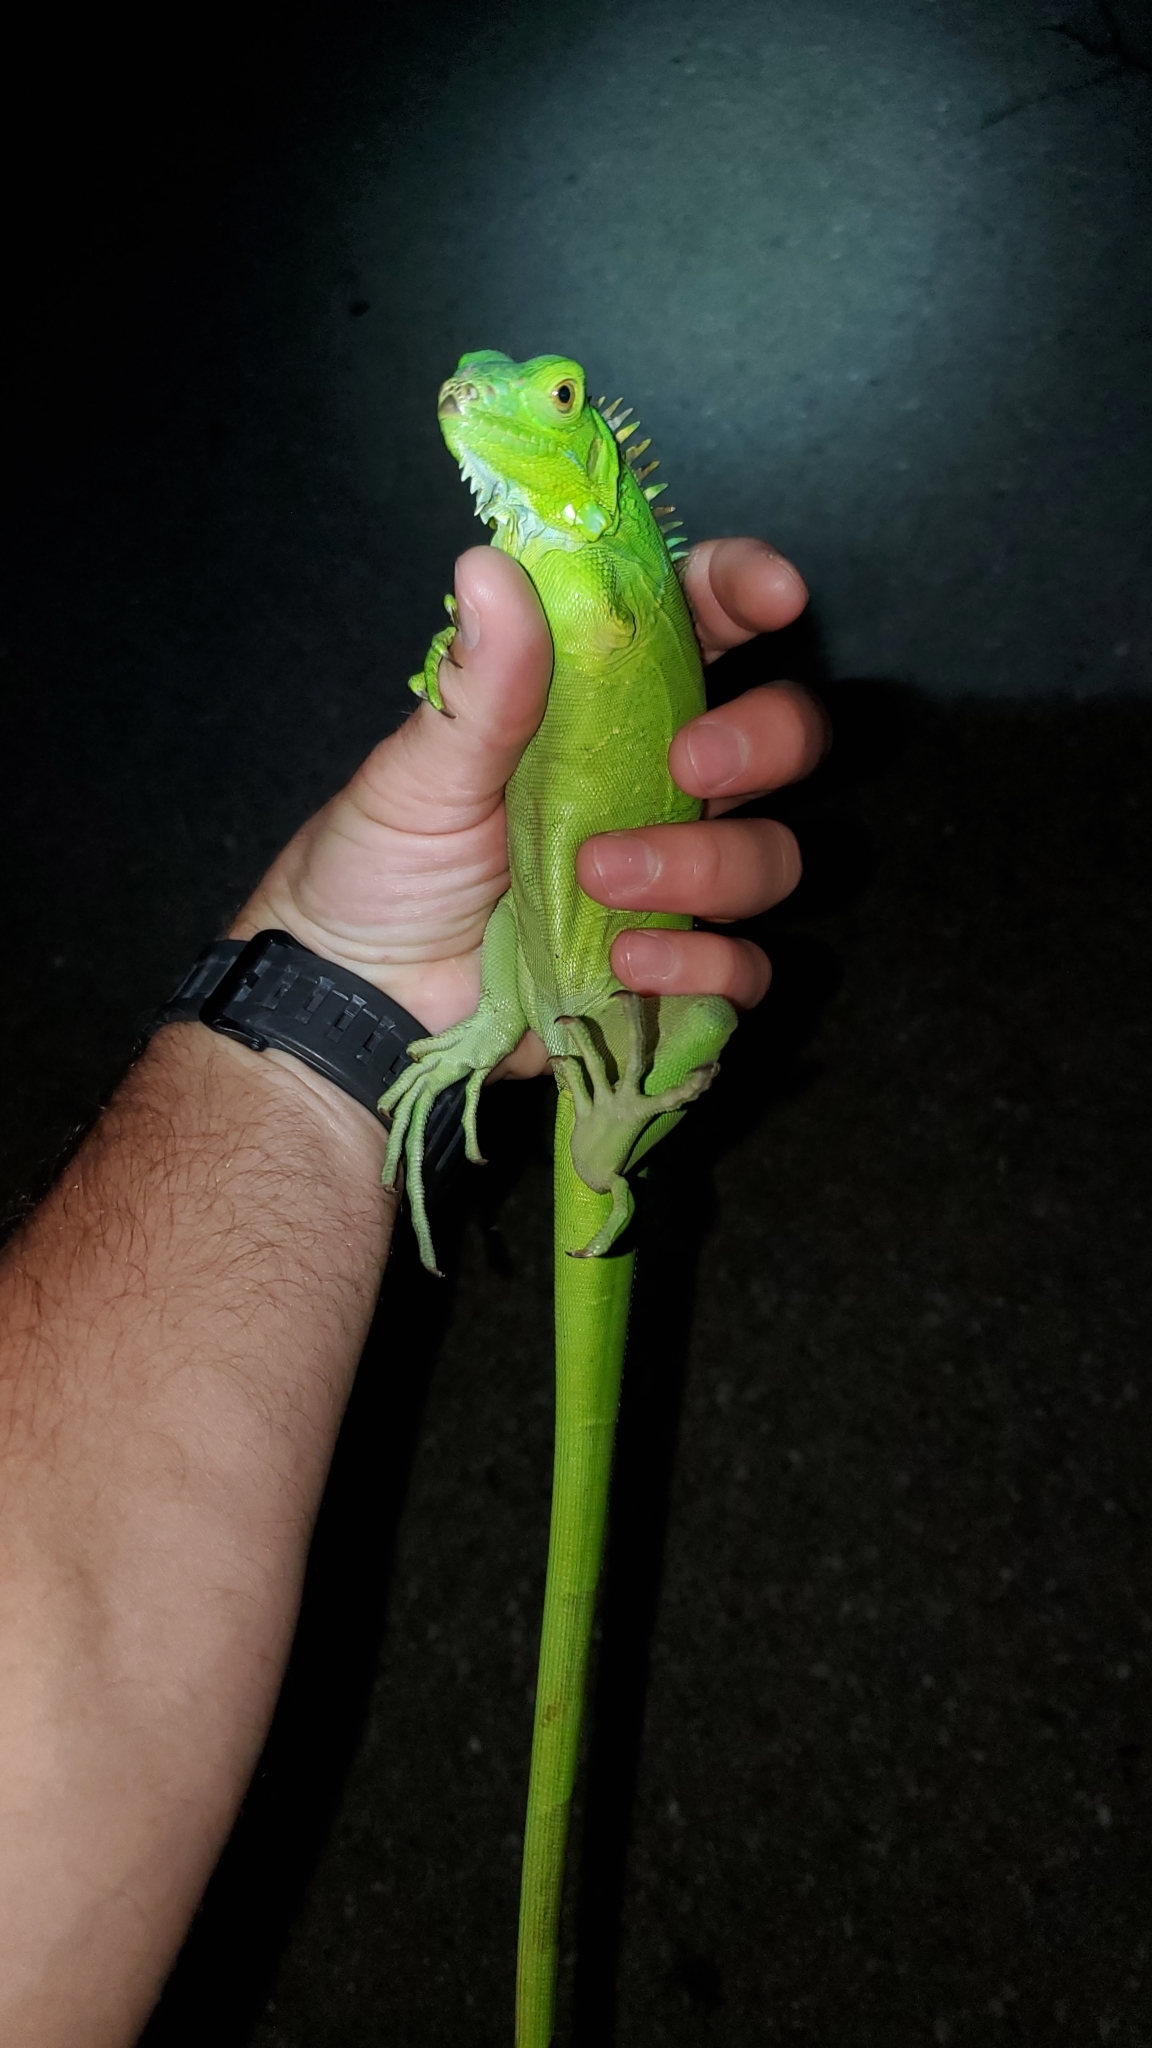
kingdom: Animalia
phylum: Chordata
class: Squamata
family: Iguanidae
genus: Iguana
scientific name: Iguana iguana
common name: Green iguana
